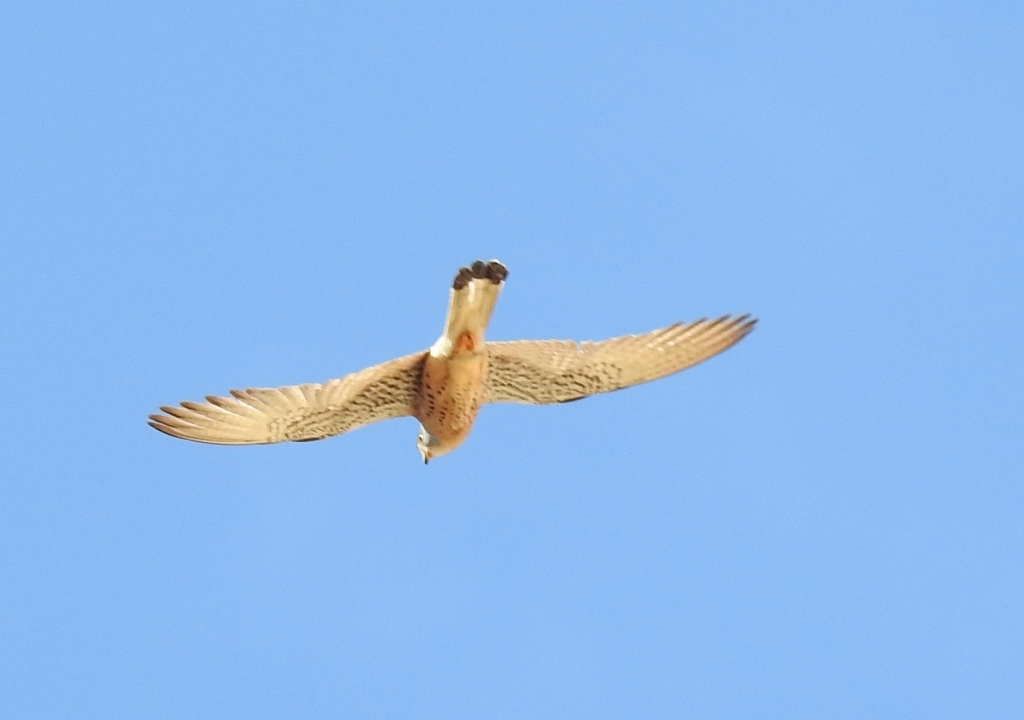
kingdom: Animalia
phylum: Chordata
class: Aves
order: Falconiformes
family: Falconidae
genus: Falco
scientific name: Falco naumanni
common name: Lesser kestrel
